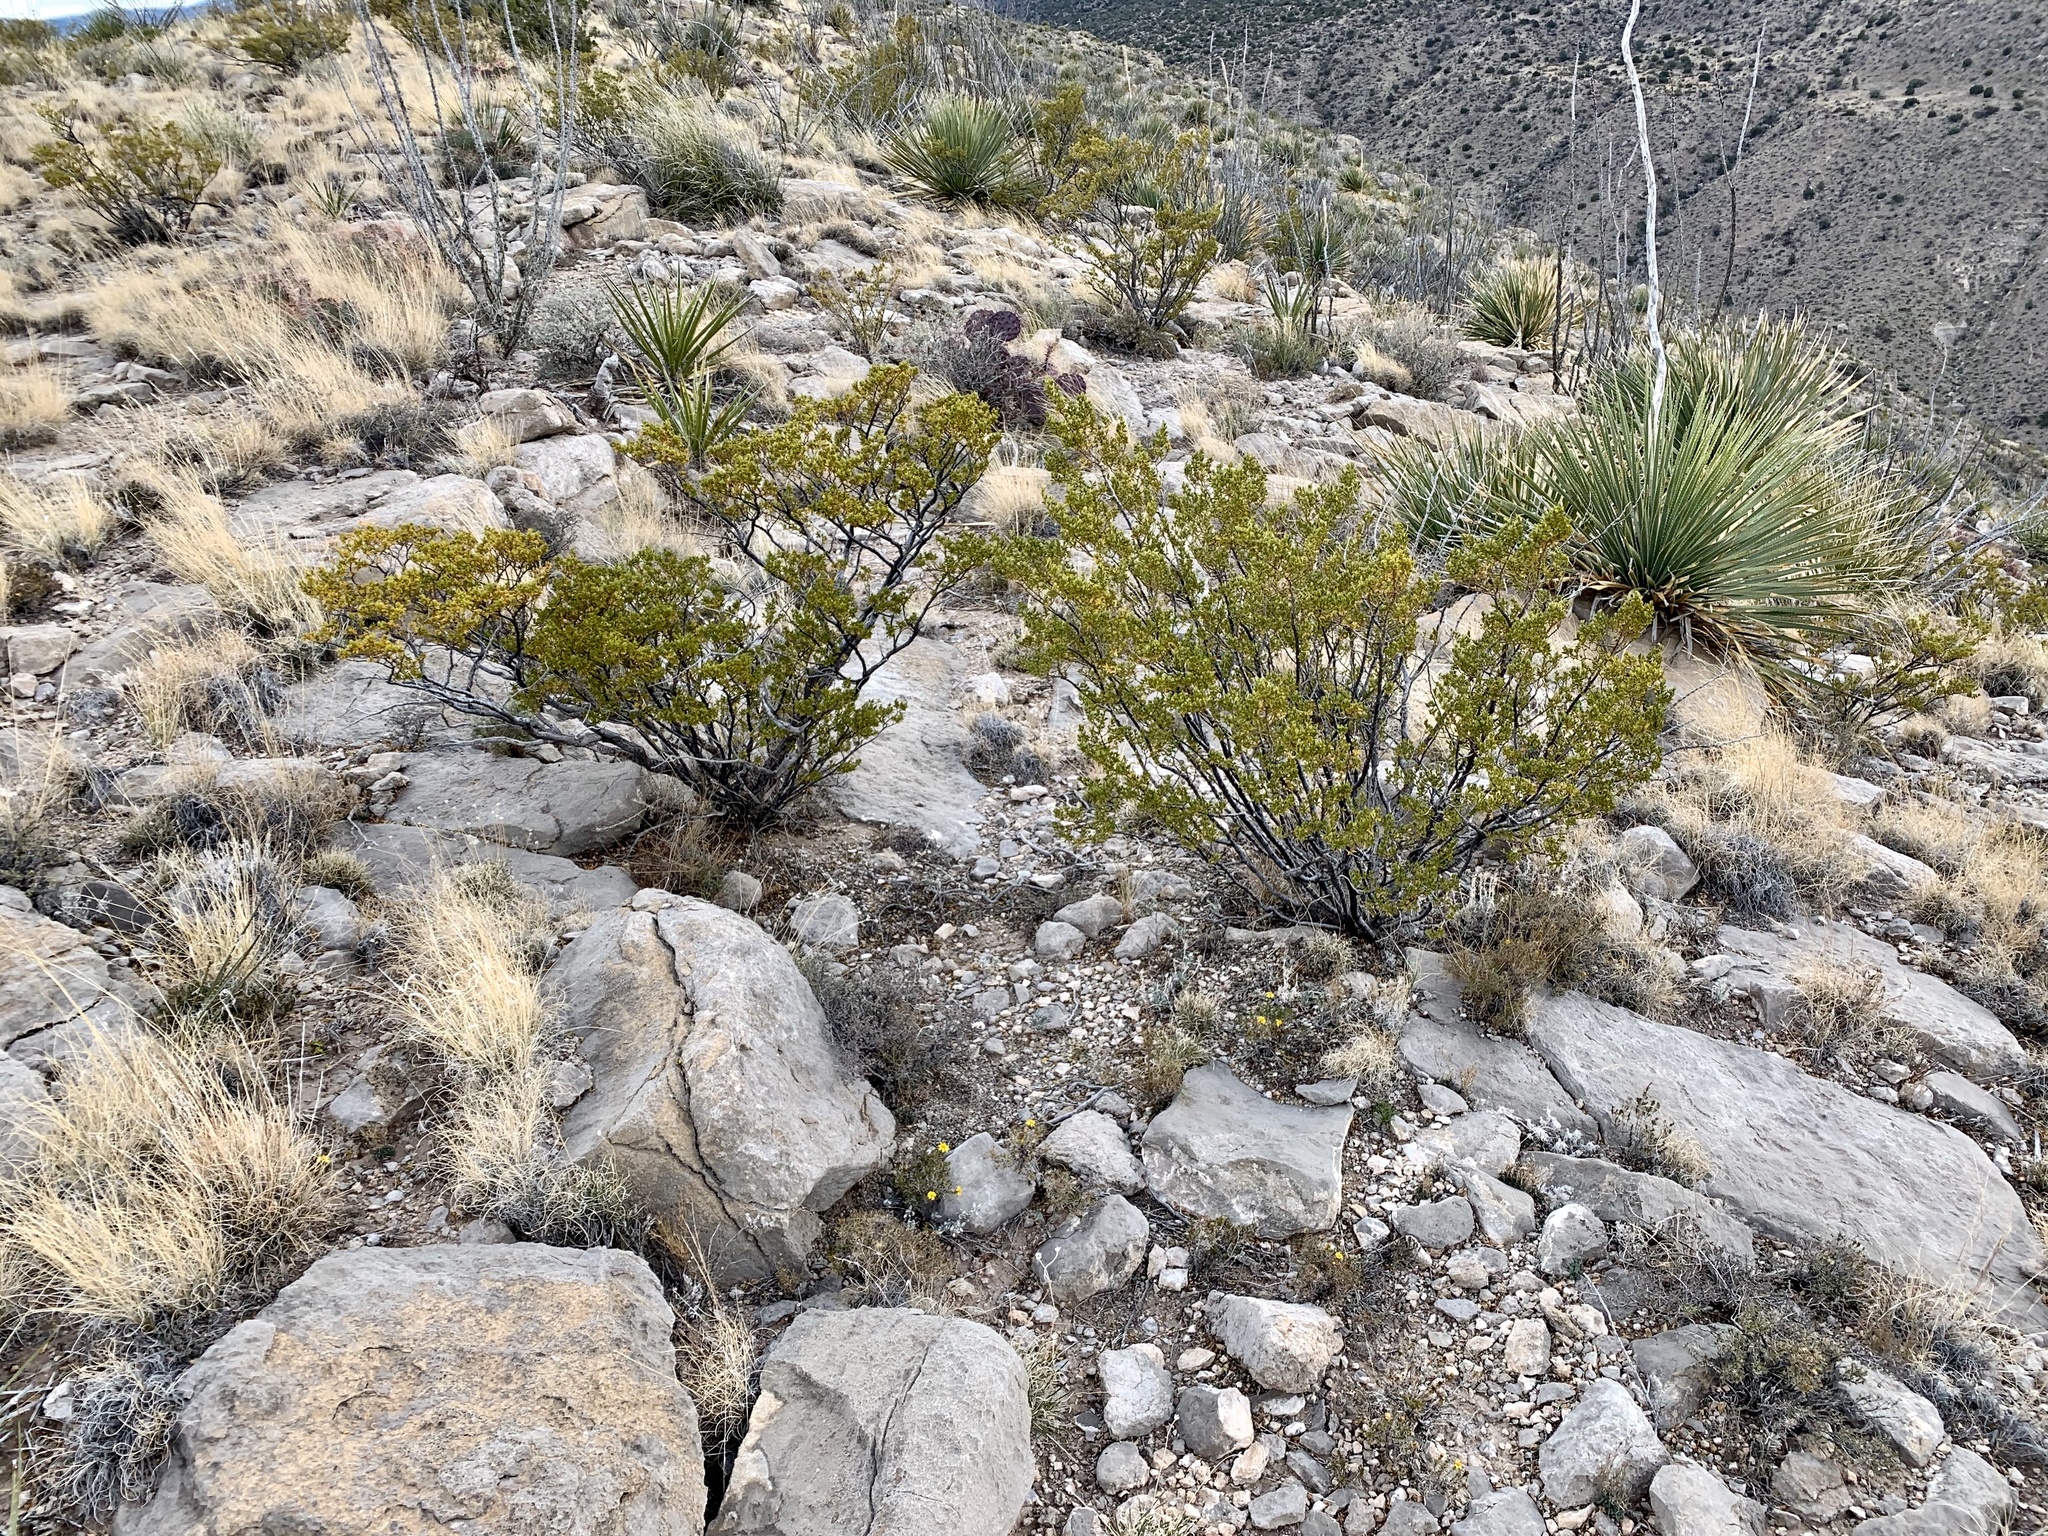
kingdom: Plantae
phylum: Tracheophyta
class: Magnoliopsida
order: Zygophyllales
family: Zygophyllaceae
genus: Larrea
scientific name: Larrea tridentata
